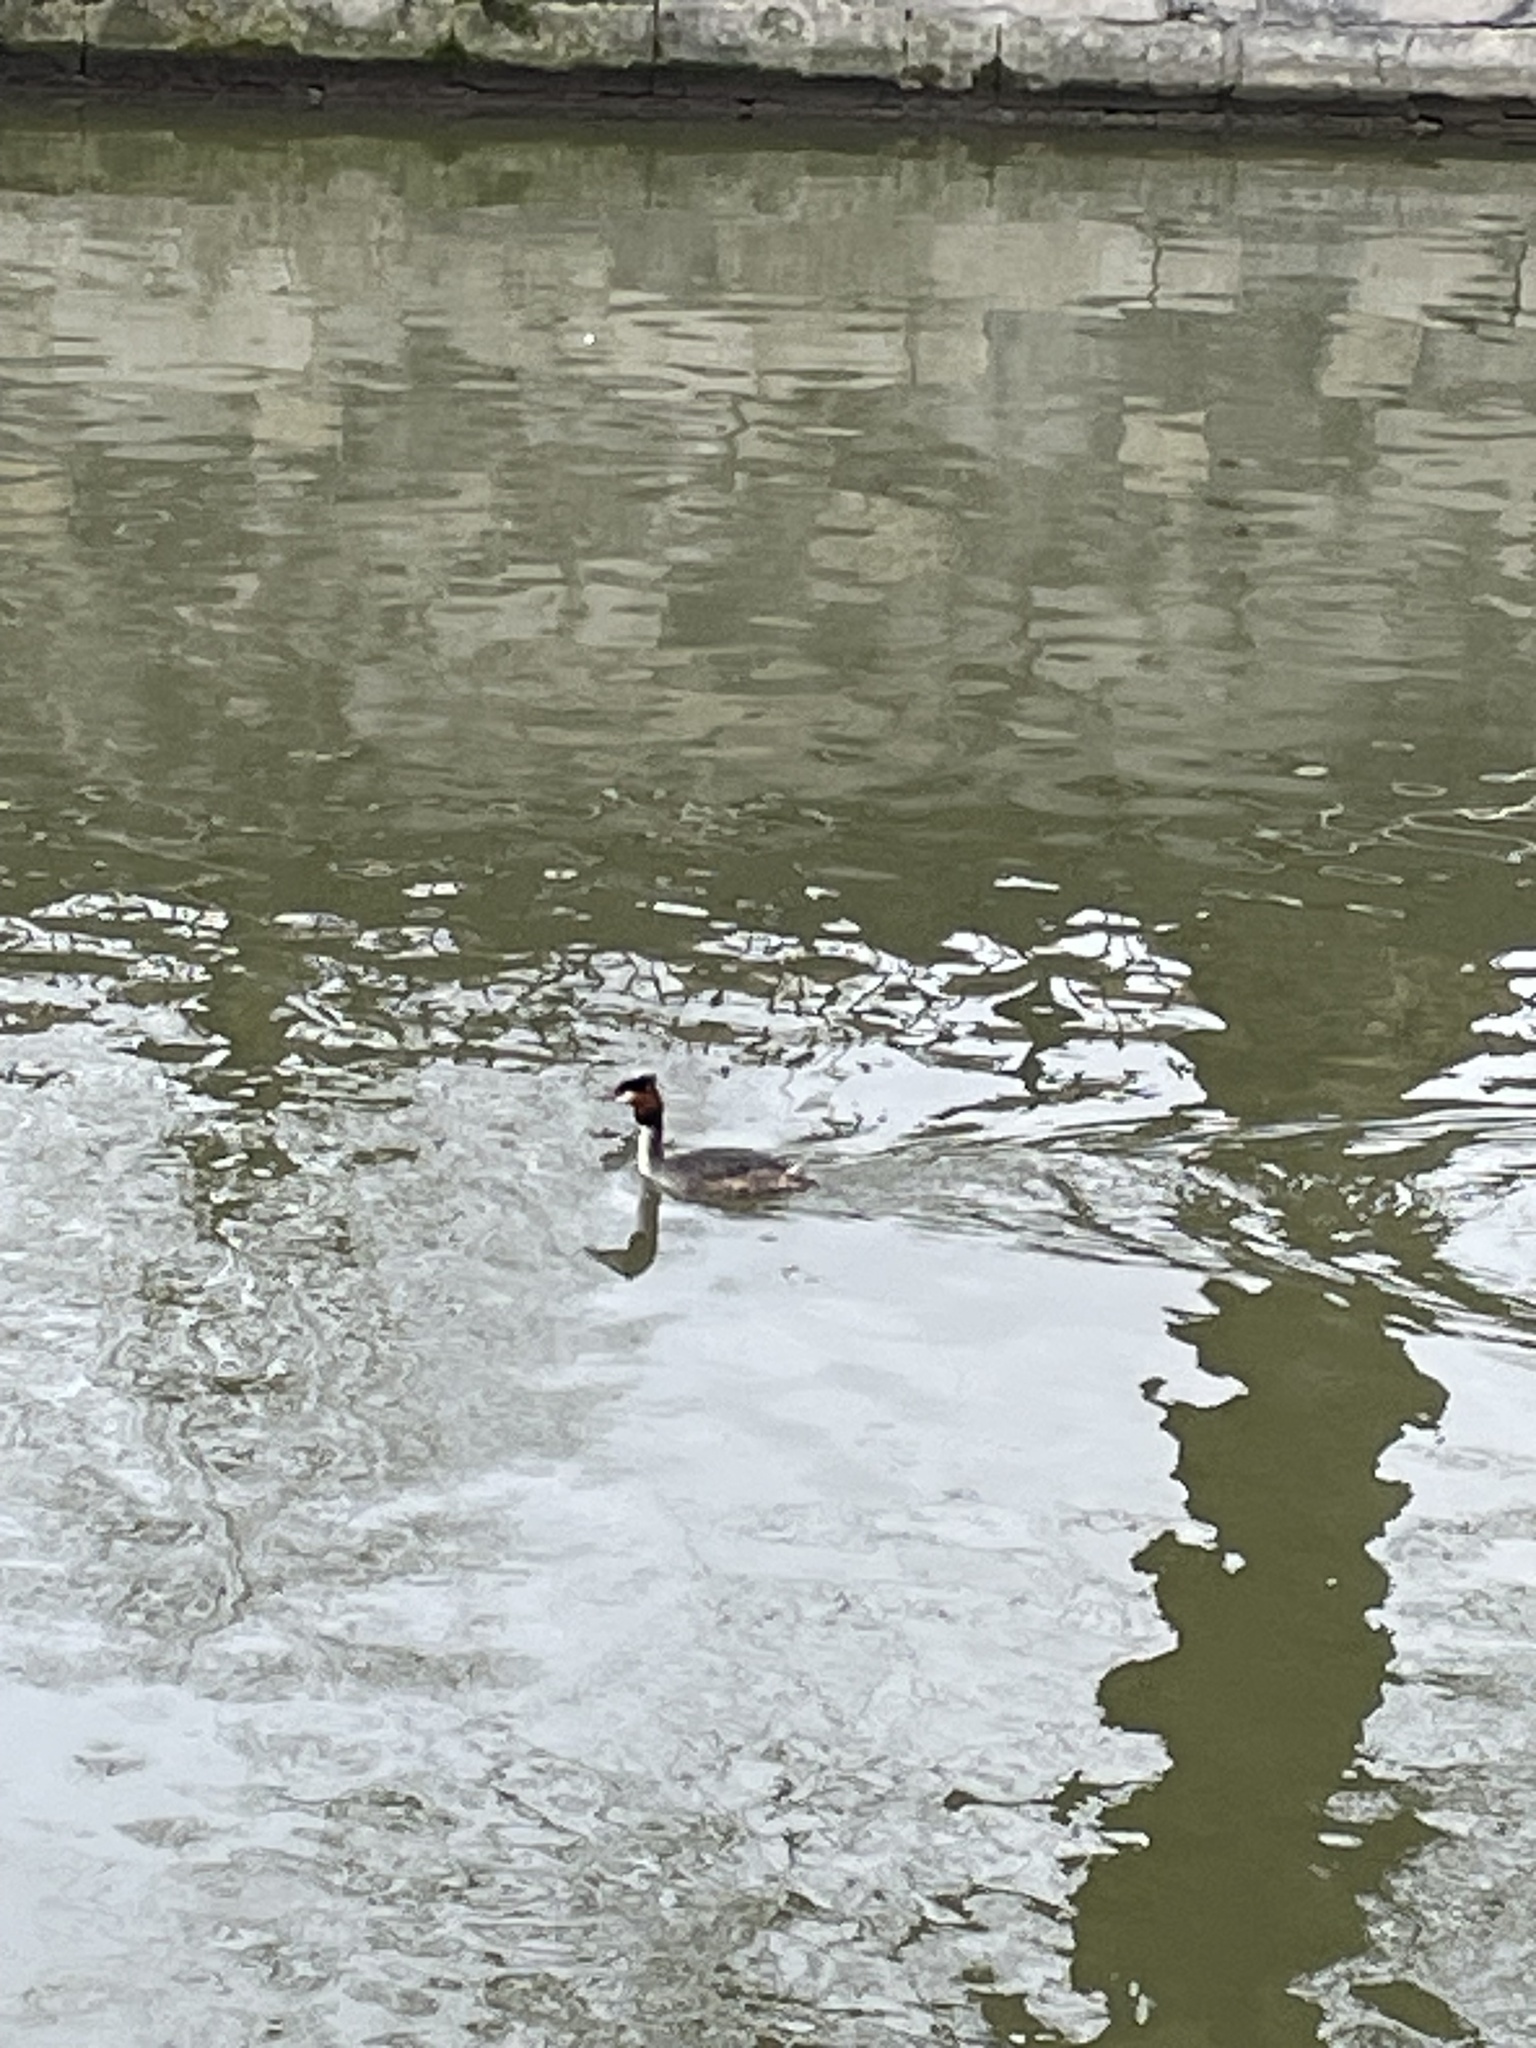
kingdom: Animalia
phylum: Chordata
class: Aves
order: Podicipediformes
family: Podicipedidae
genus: Podiceps
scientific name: Podiceps cristatus
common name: Great crested grebe
